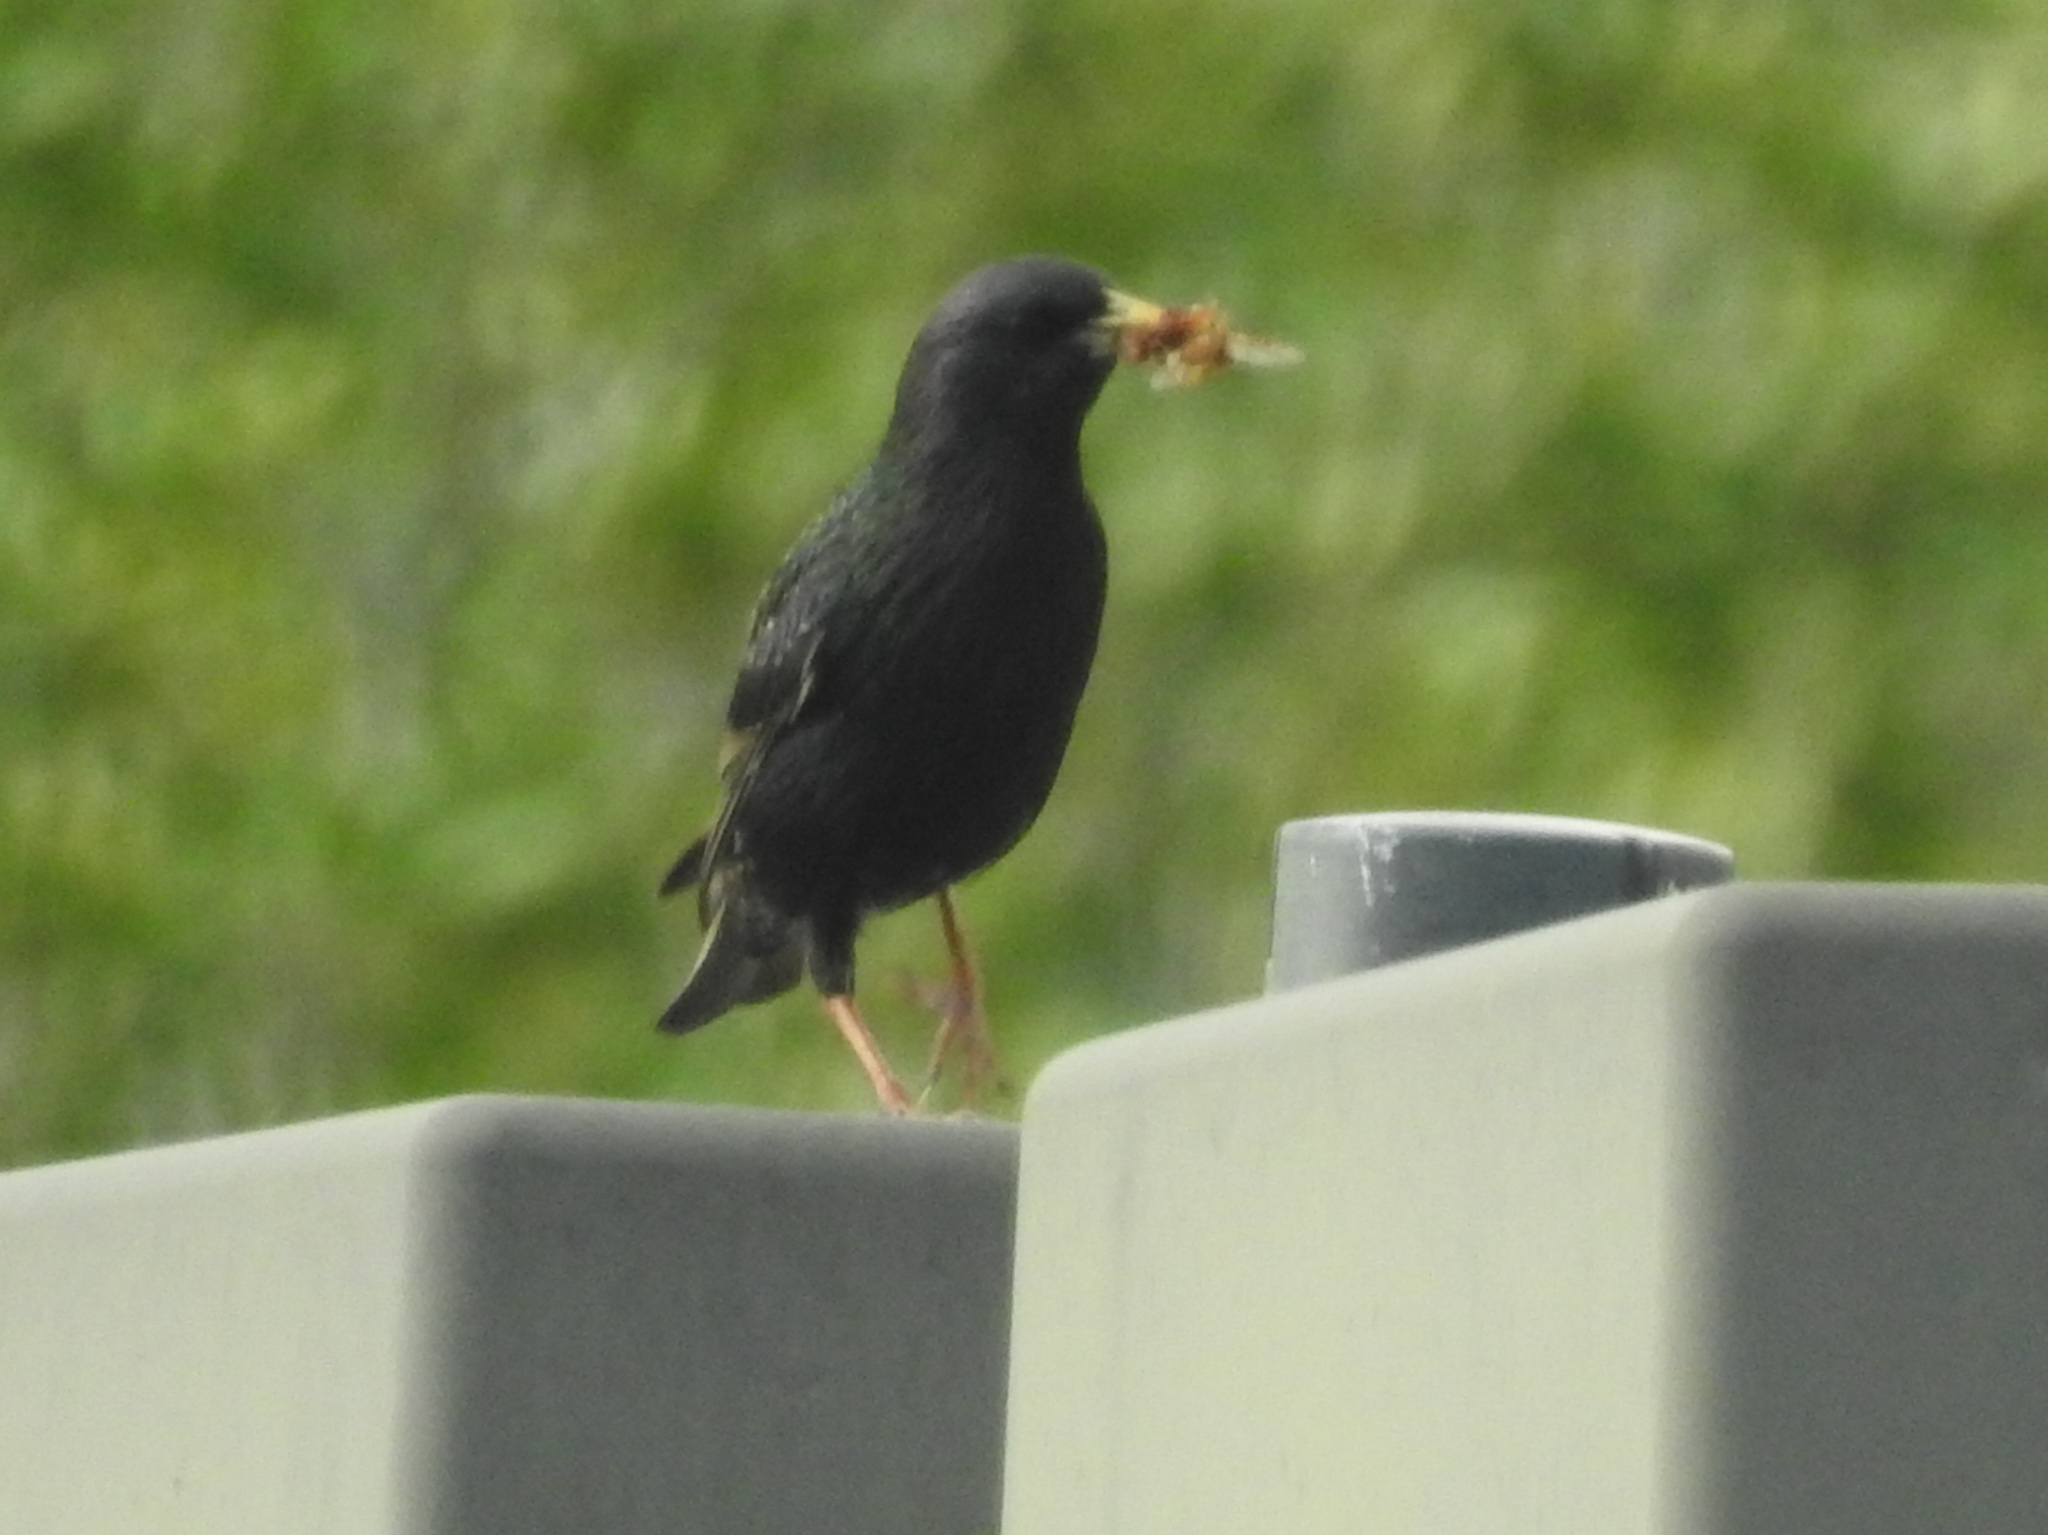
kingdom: Animalia
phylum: Chordata
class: Aves
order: Passeriformes
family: Sturnidae
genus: Sturnus
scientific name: Sturnus vulgaris
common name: Common starling
